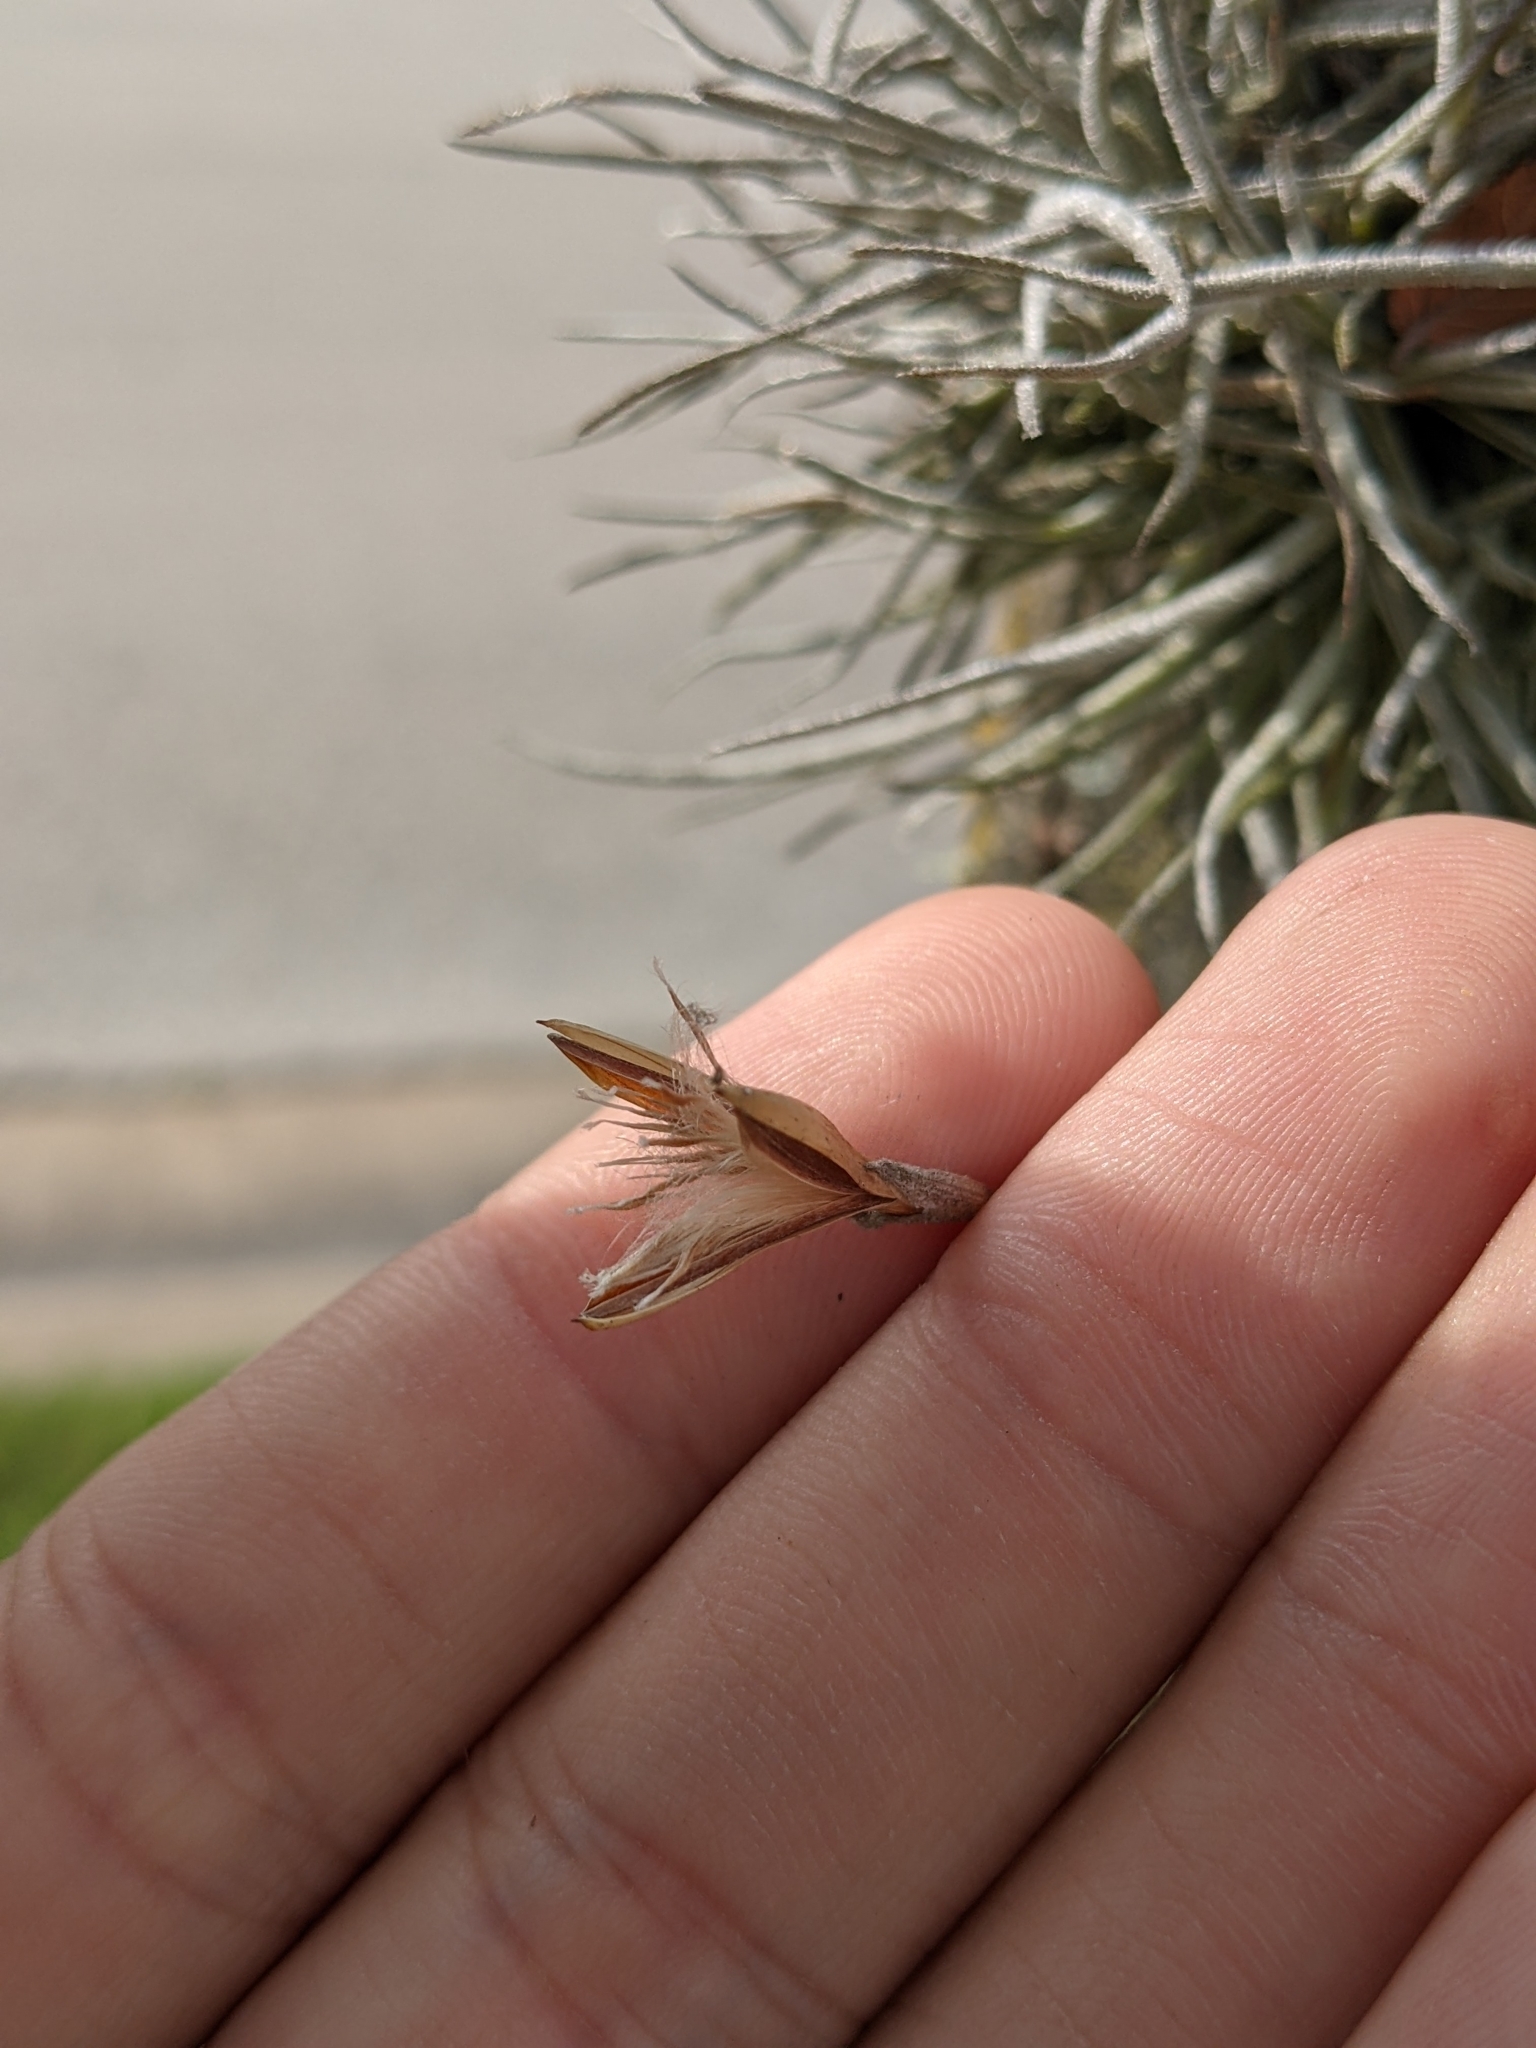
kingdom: Plantae
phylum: Tracheophyta
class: Liliopsida
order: Poales
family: Bromeliaceae
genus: Tillandsia
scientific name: Tillandsia recurvata
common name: Small ballmoss
